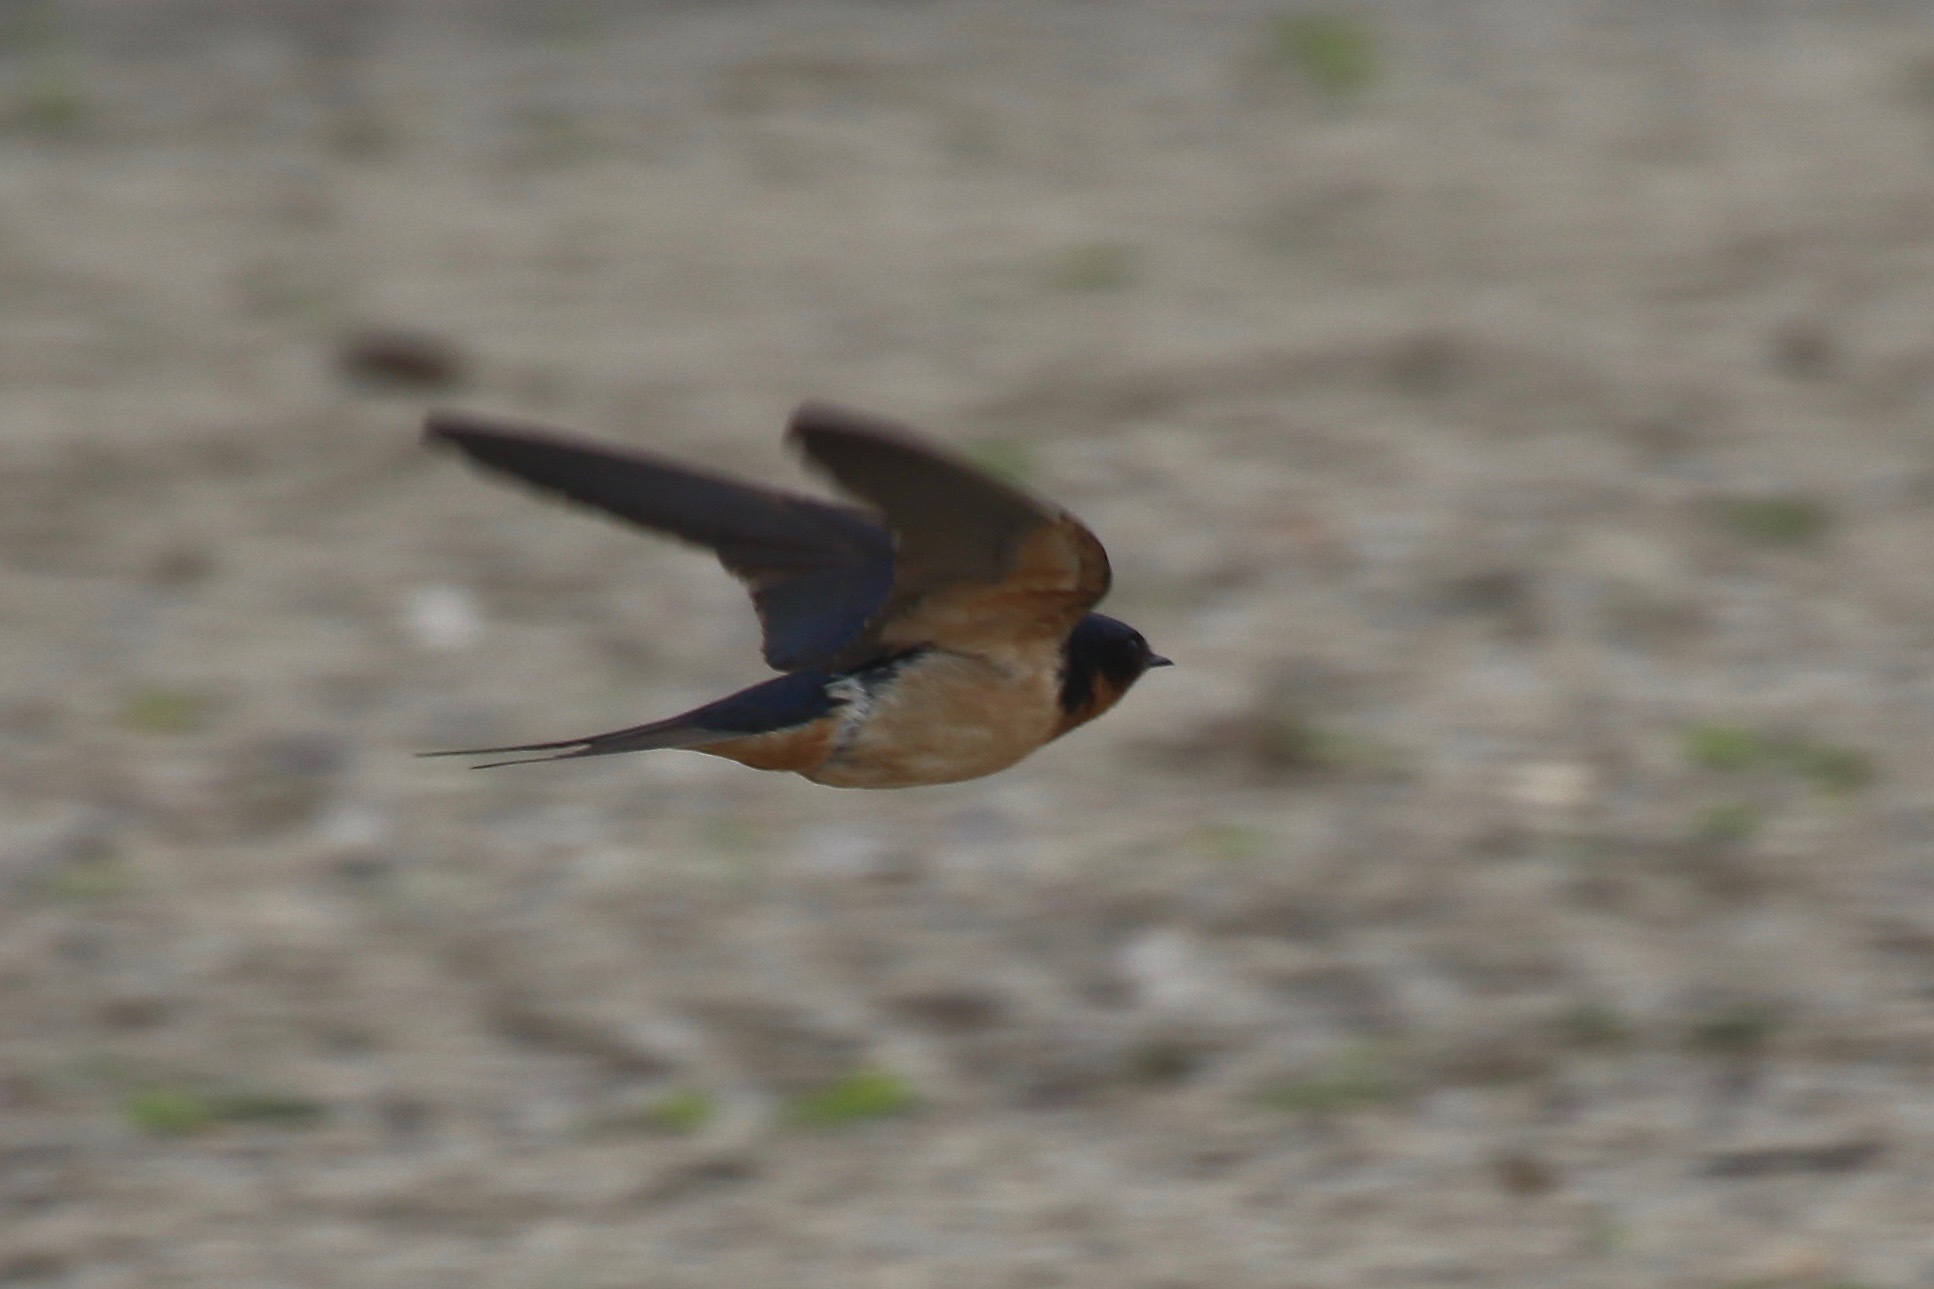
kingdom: Animalia
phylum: Chordata
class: Aves
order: Passeriformes
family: Hirundinidae
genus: Hirundo
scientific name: Hirundo rustica
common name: Barn swallow
